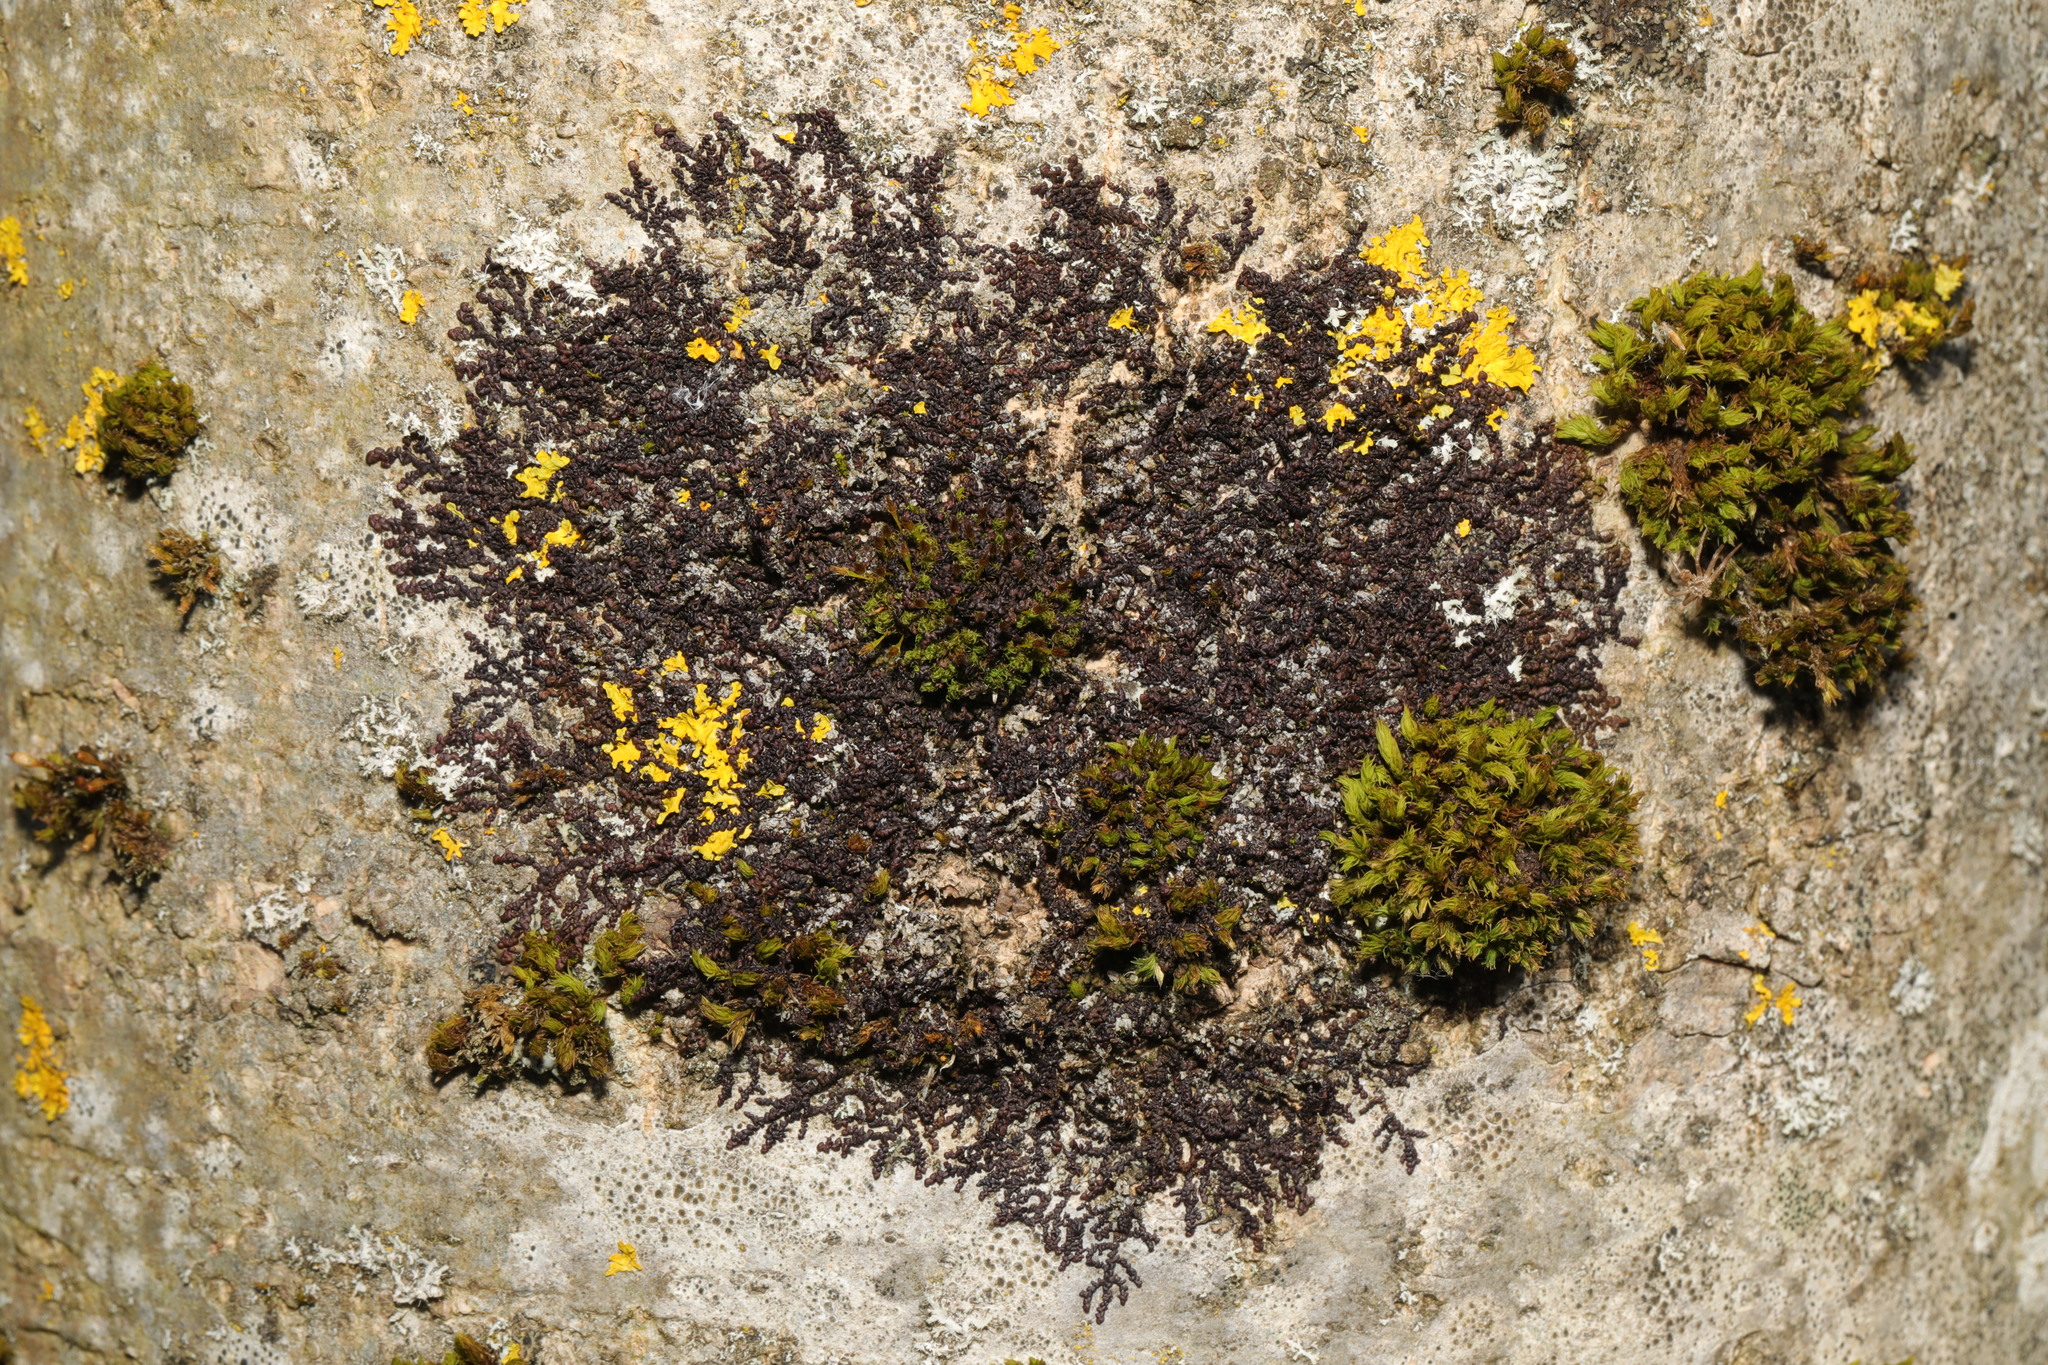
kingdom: Plantae
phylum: Marchantiophyta
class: Jungermanniopsida
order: Porellales
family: Frullaniaceae
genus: Frullania
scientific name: Frullania dilatata
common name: Dilated scalewort
